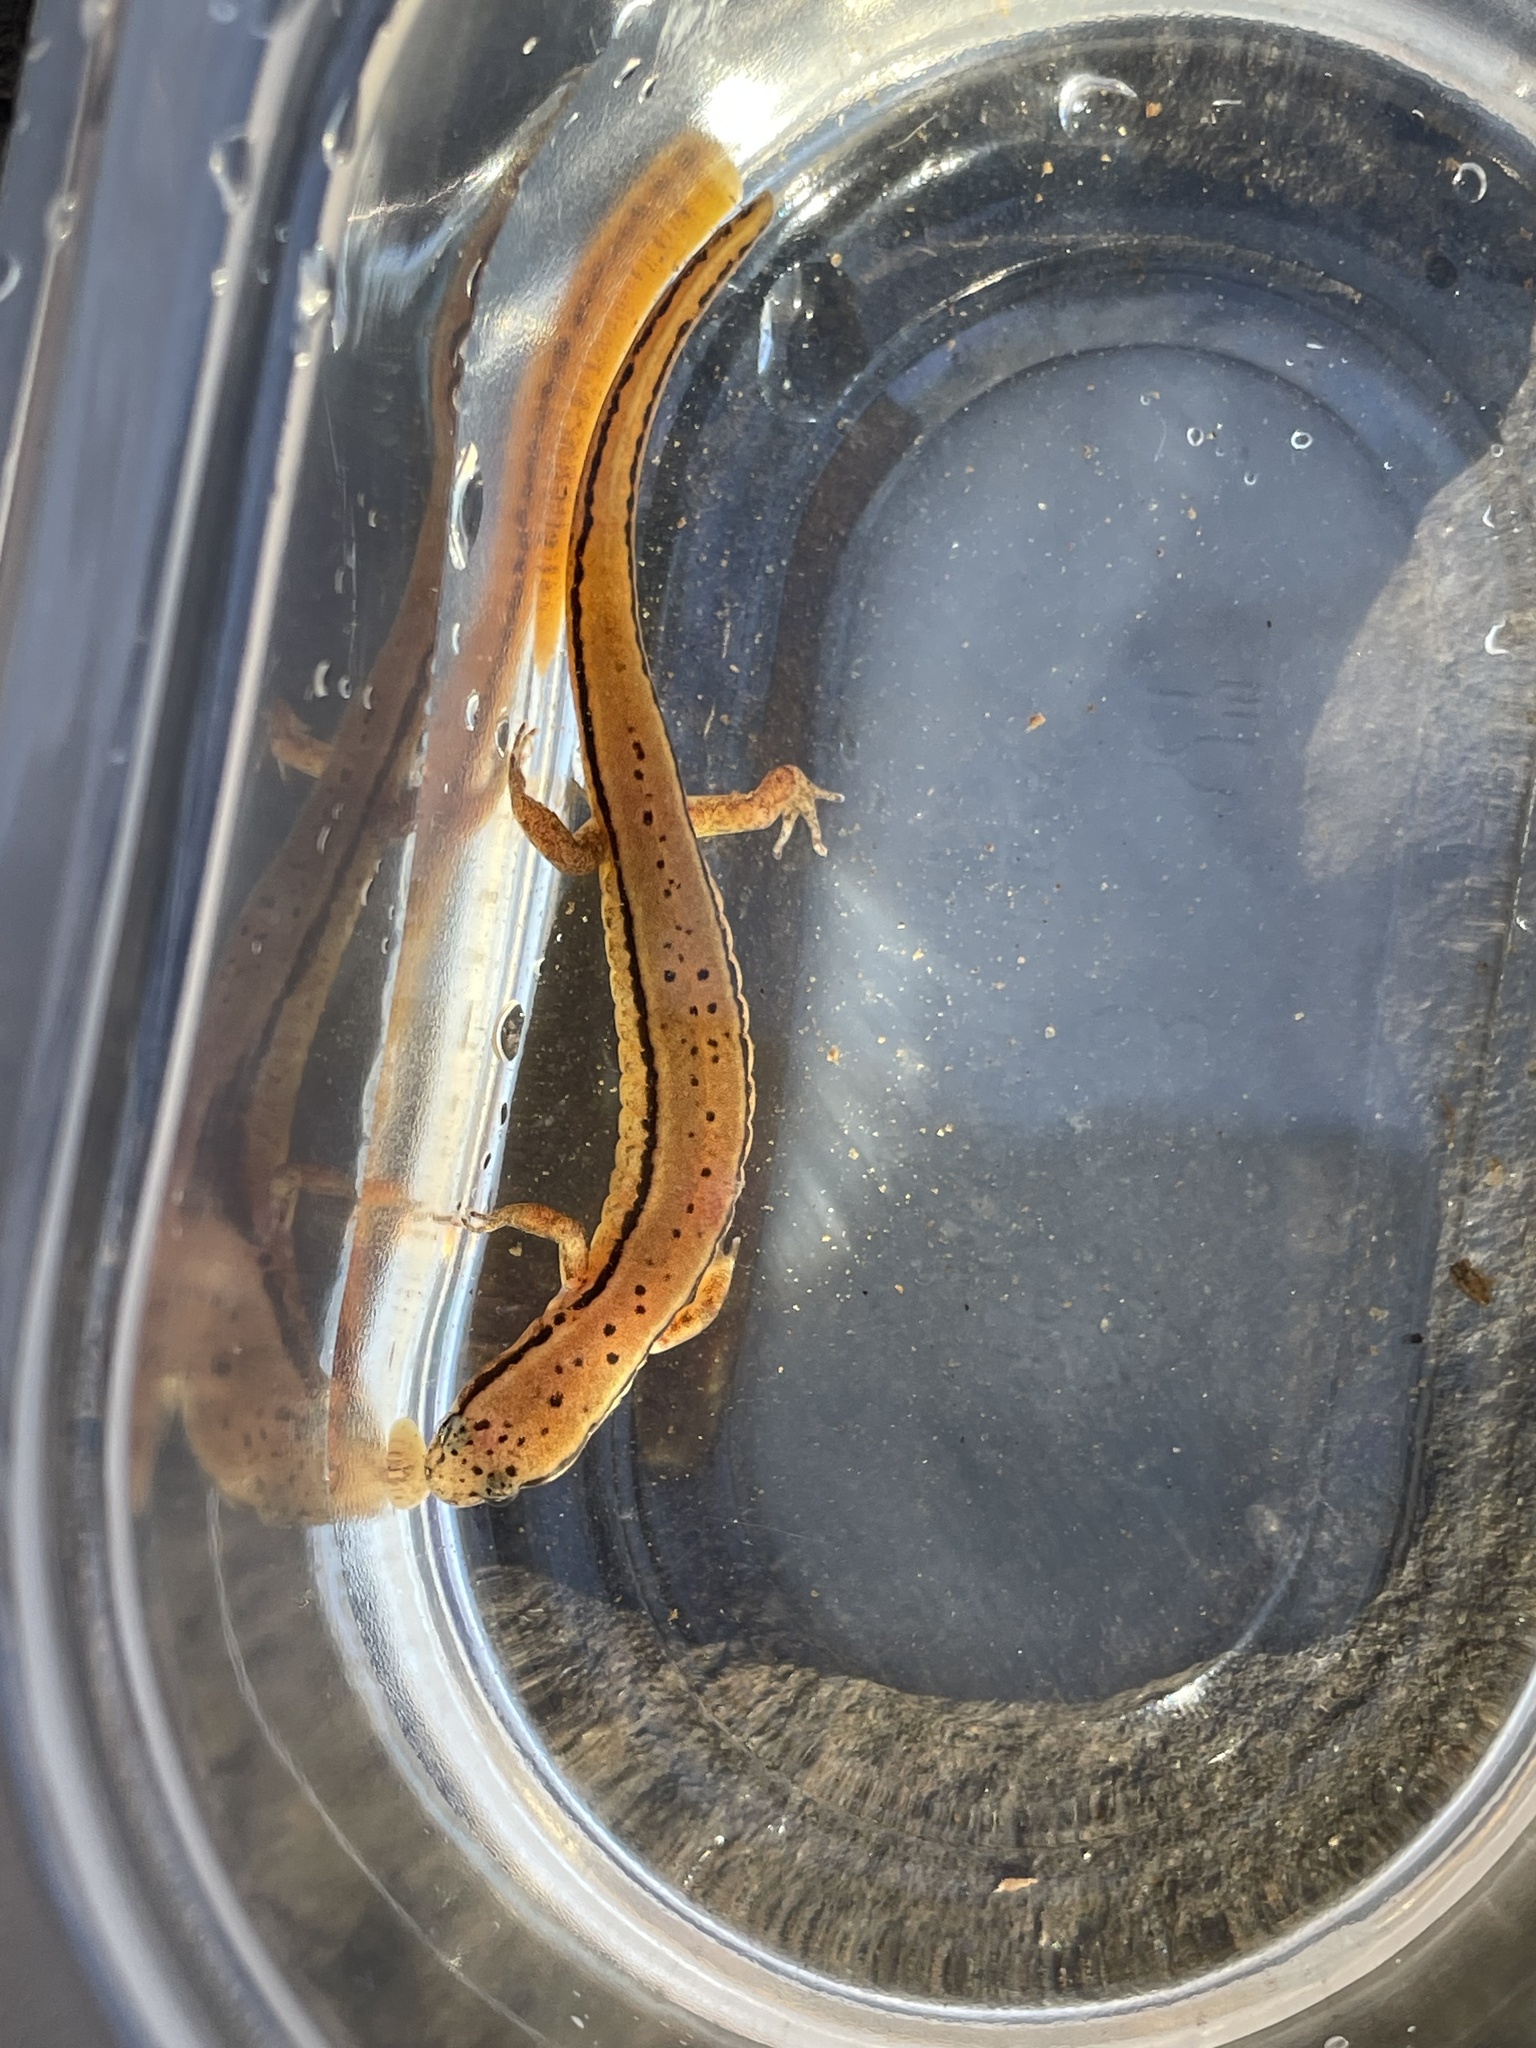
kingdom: Animalia
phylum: Chordata
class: Amphibia
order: Caudata
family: Plethodontidae
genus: Eurycea
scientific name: Eurycea wilderae
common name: Blue ridge two-lined salamander
